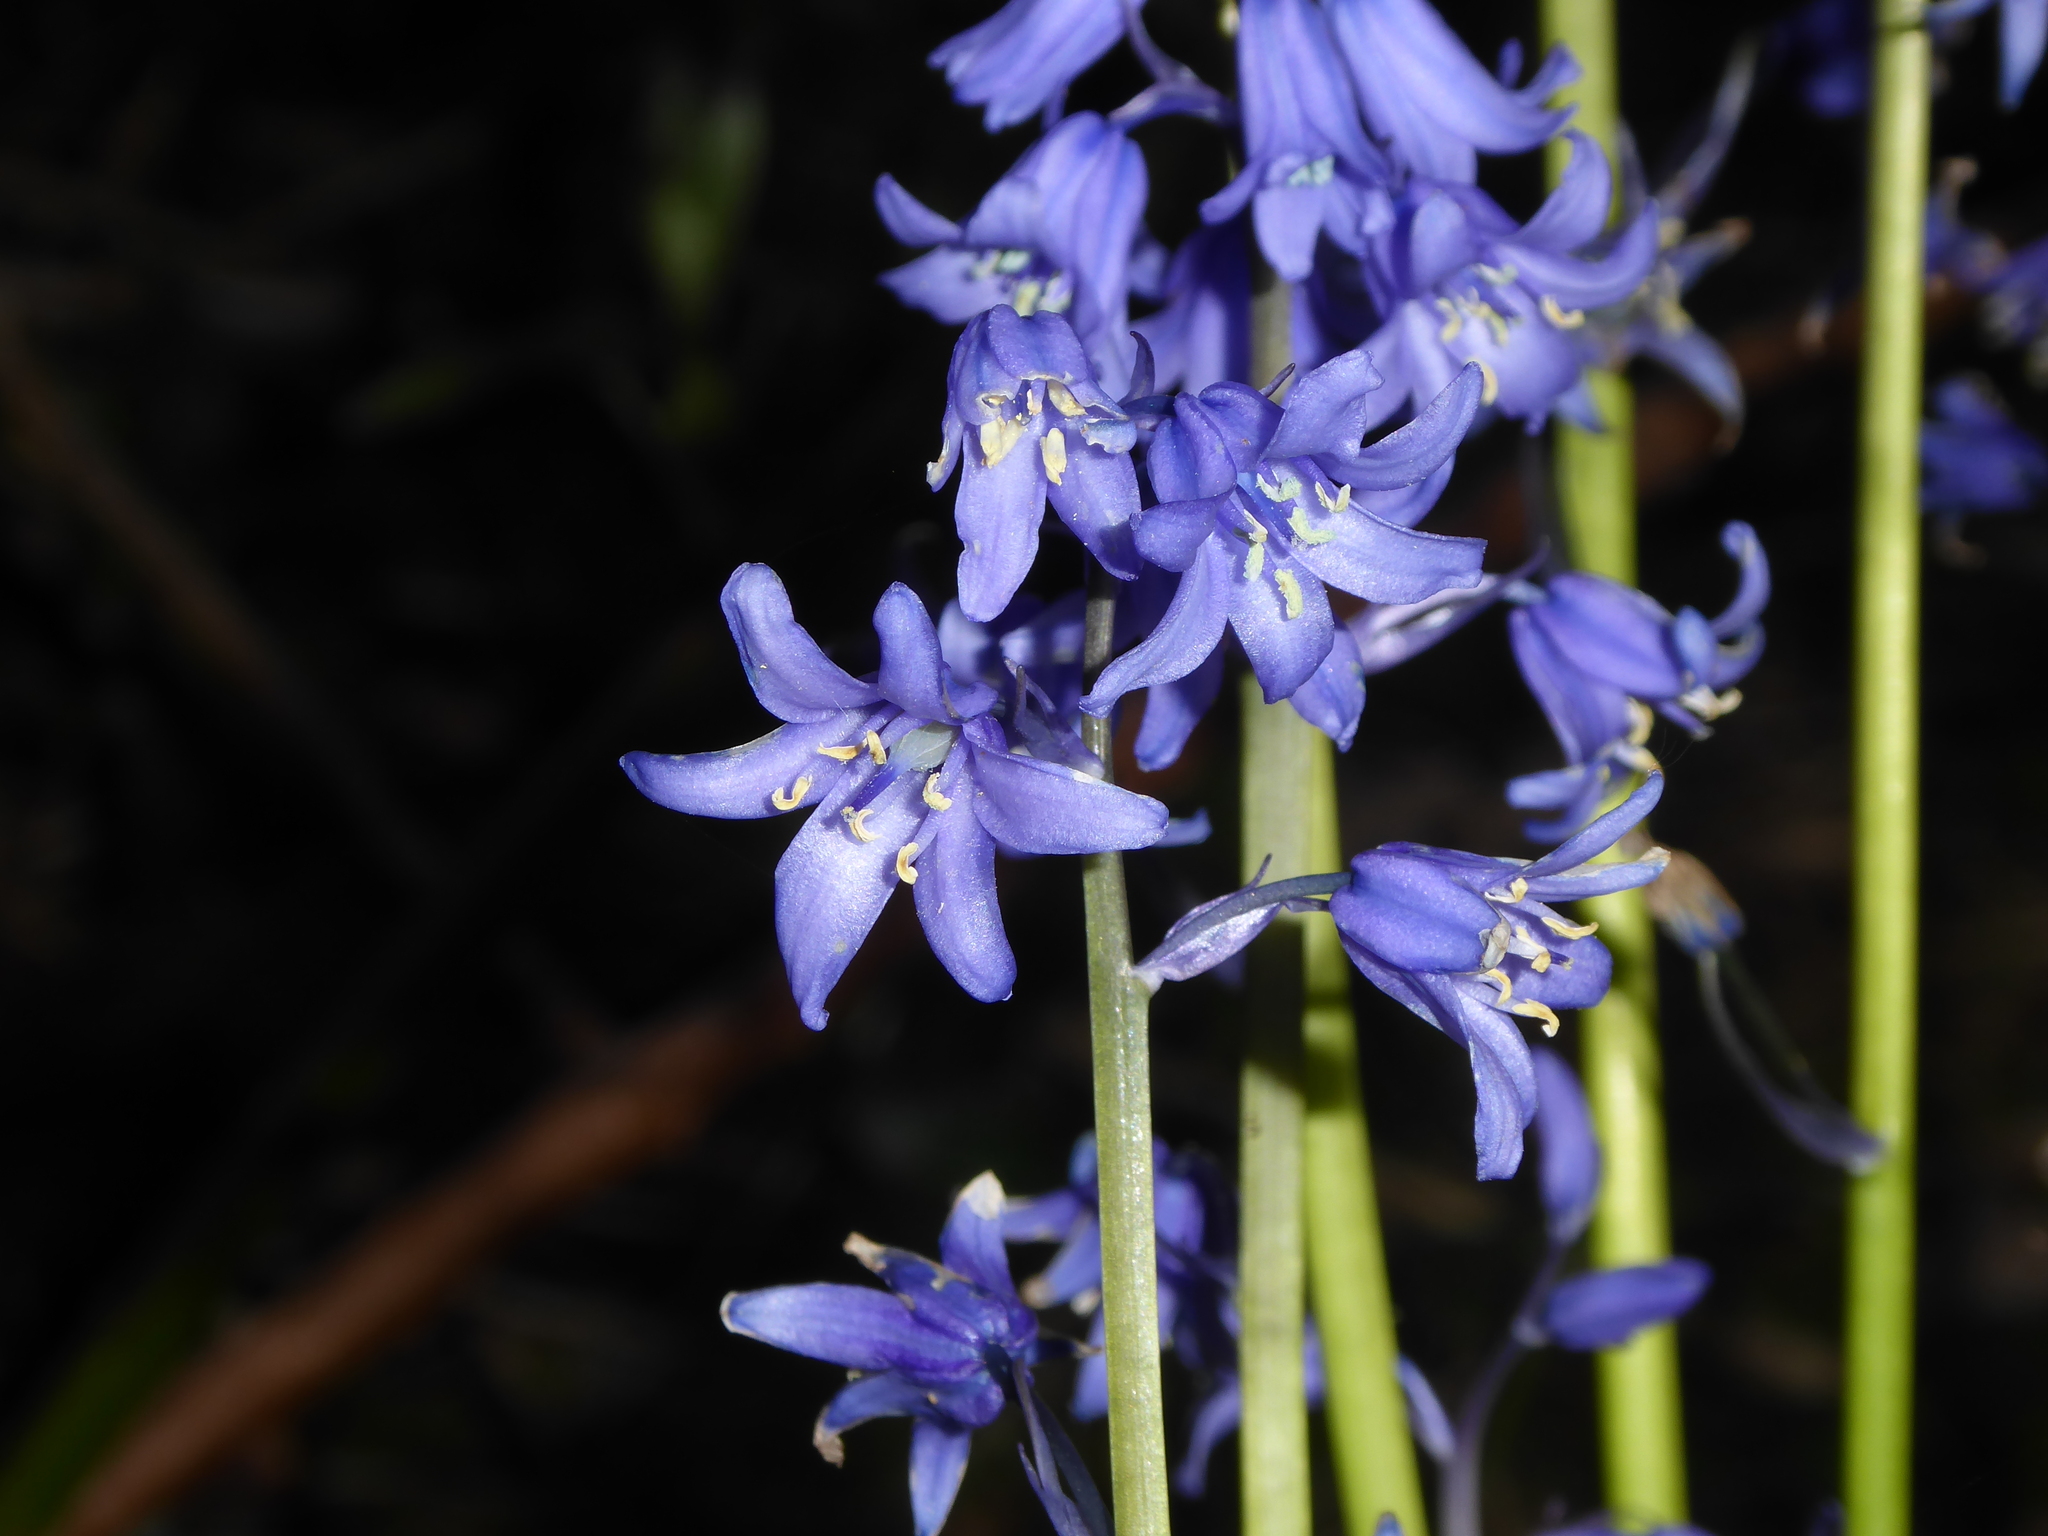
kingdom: Plantae
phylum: Tracheophyta
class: Liliopsida
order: Asparagales
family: Asparagaceae
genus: Hyacinthoides
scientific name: Hyacinthoides massartiana
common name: Hyacinthoides
